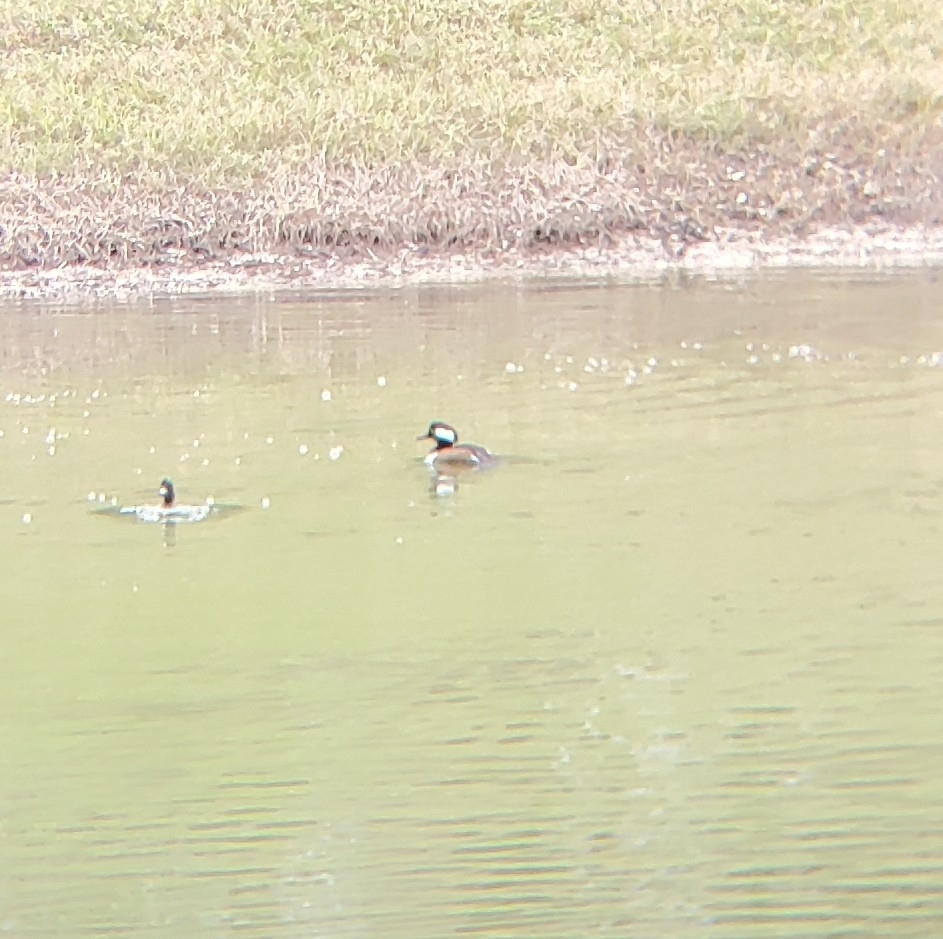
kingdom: Animalia
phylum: Chordata
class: Aves
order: Anseriformes
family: Anatidae
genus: Lophodytes
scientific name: Lophodytes cucullatus
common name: Hooded merganser
